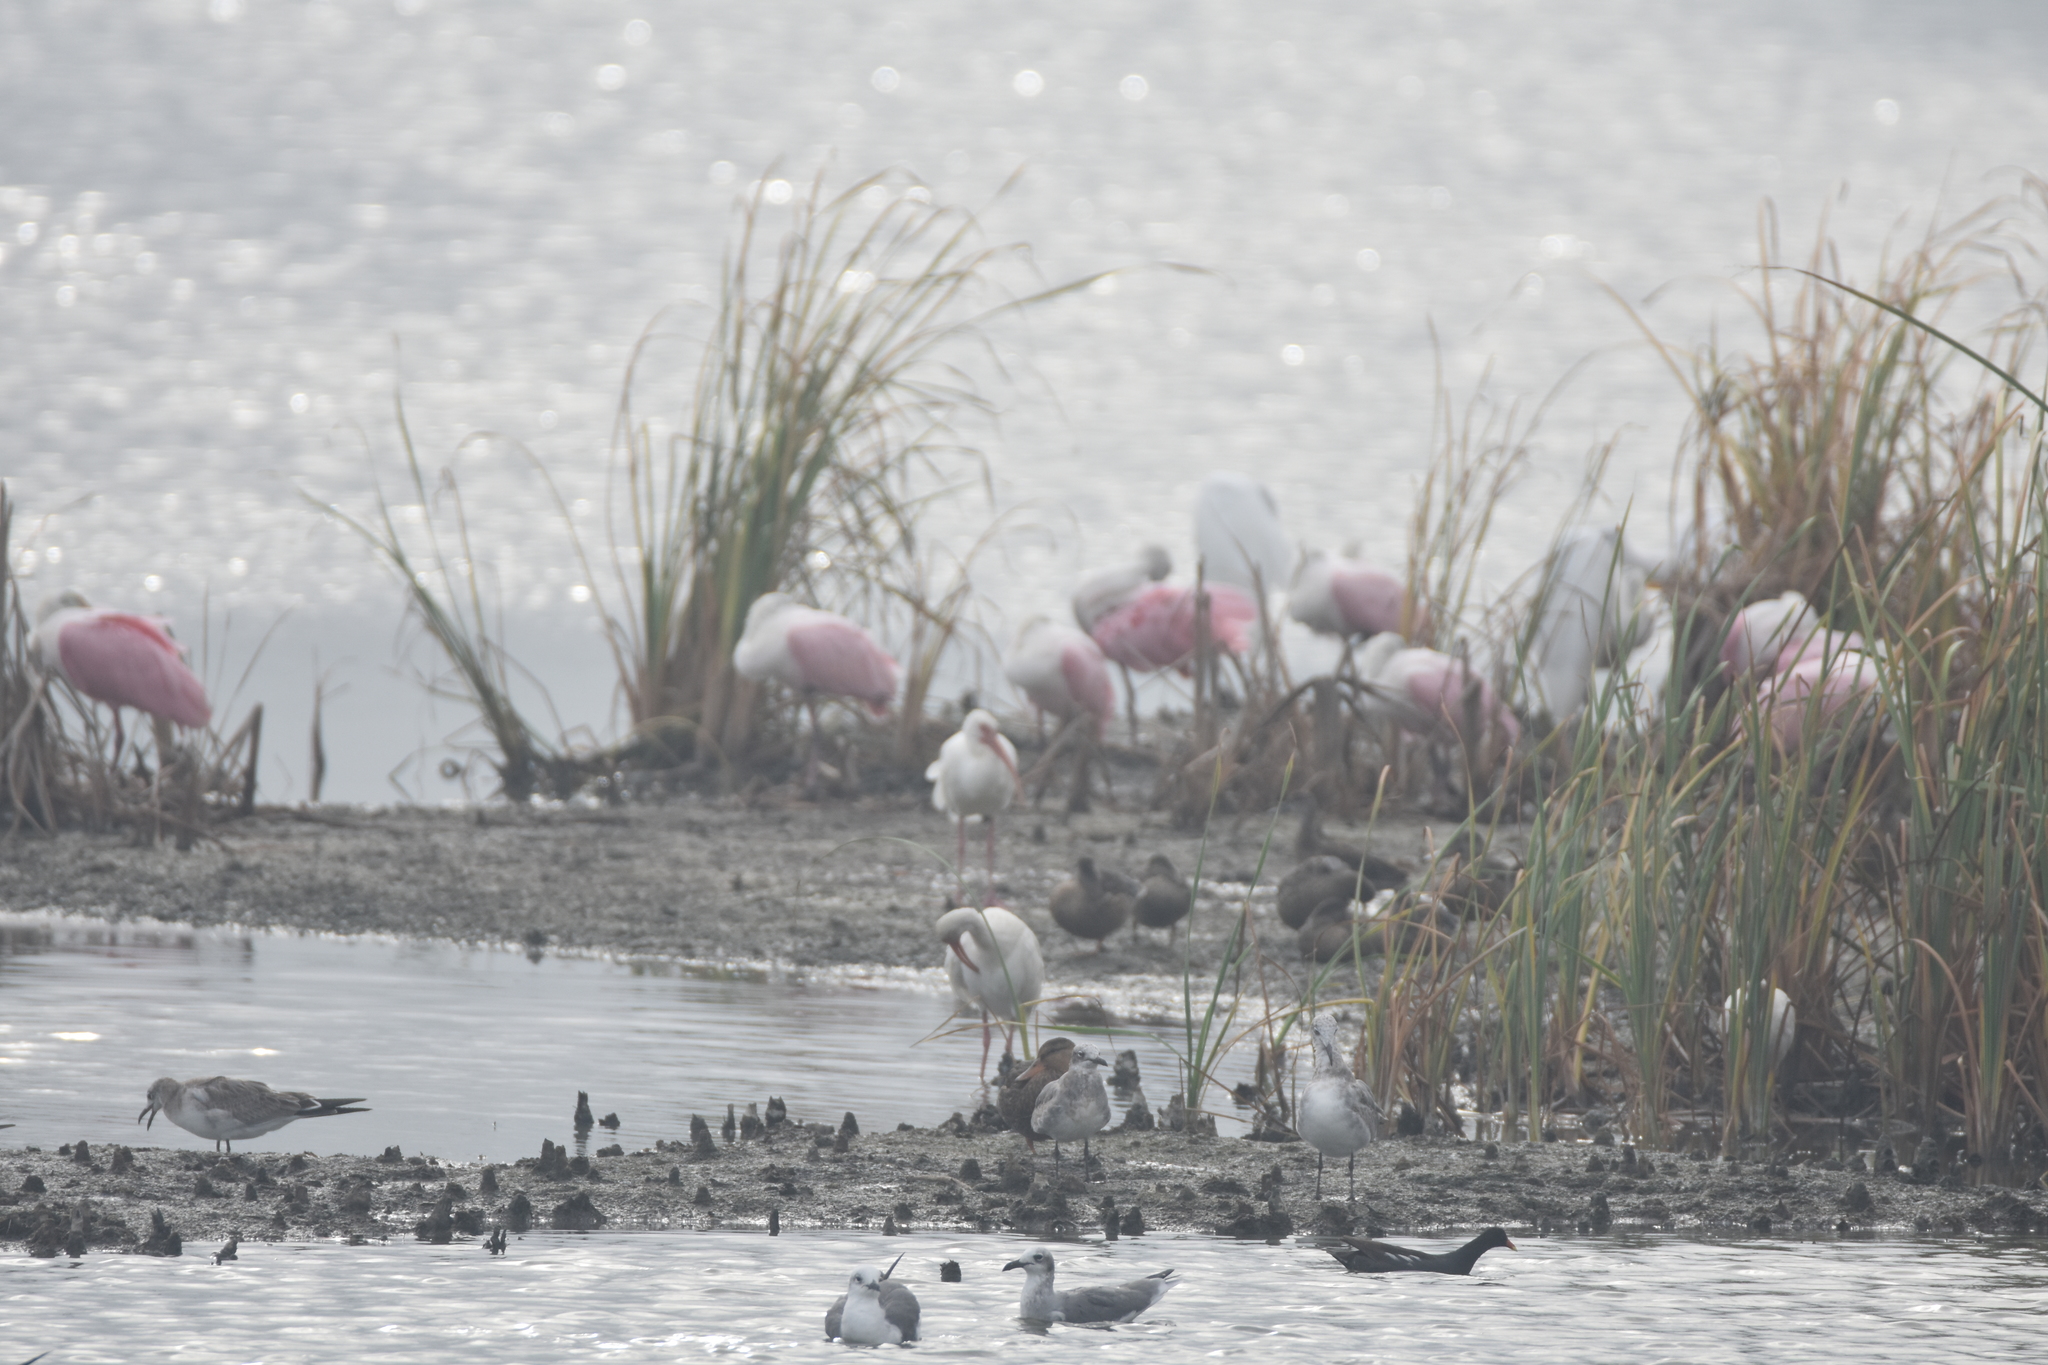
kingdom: Animalia
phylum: Chordata
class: Aves
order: Gruiformes
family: Rallidae
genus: Gallinula
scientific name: Gallinula chloropus
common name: Common moorhen
